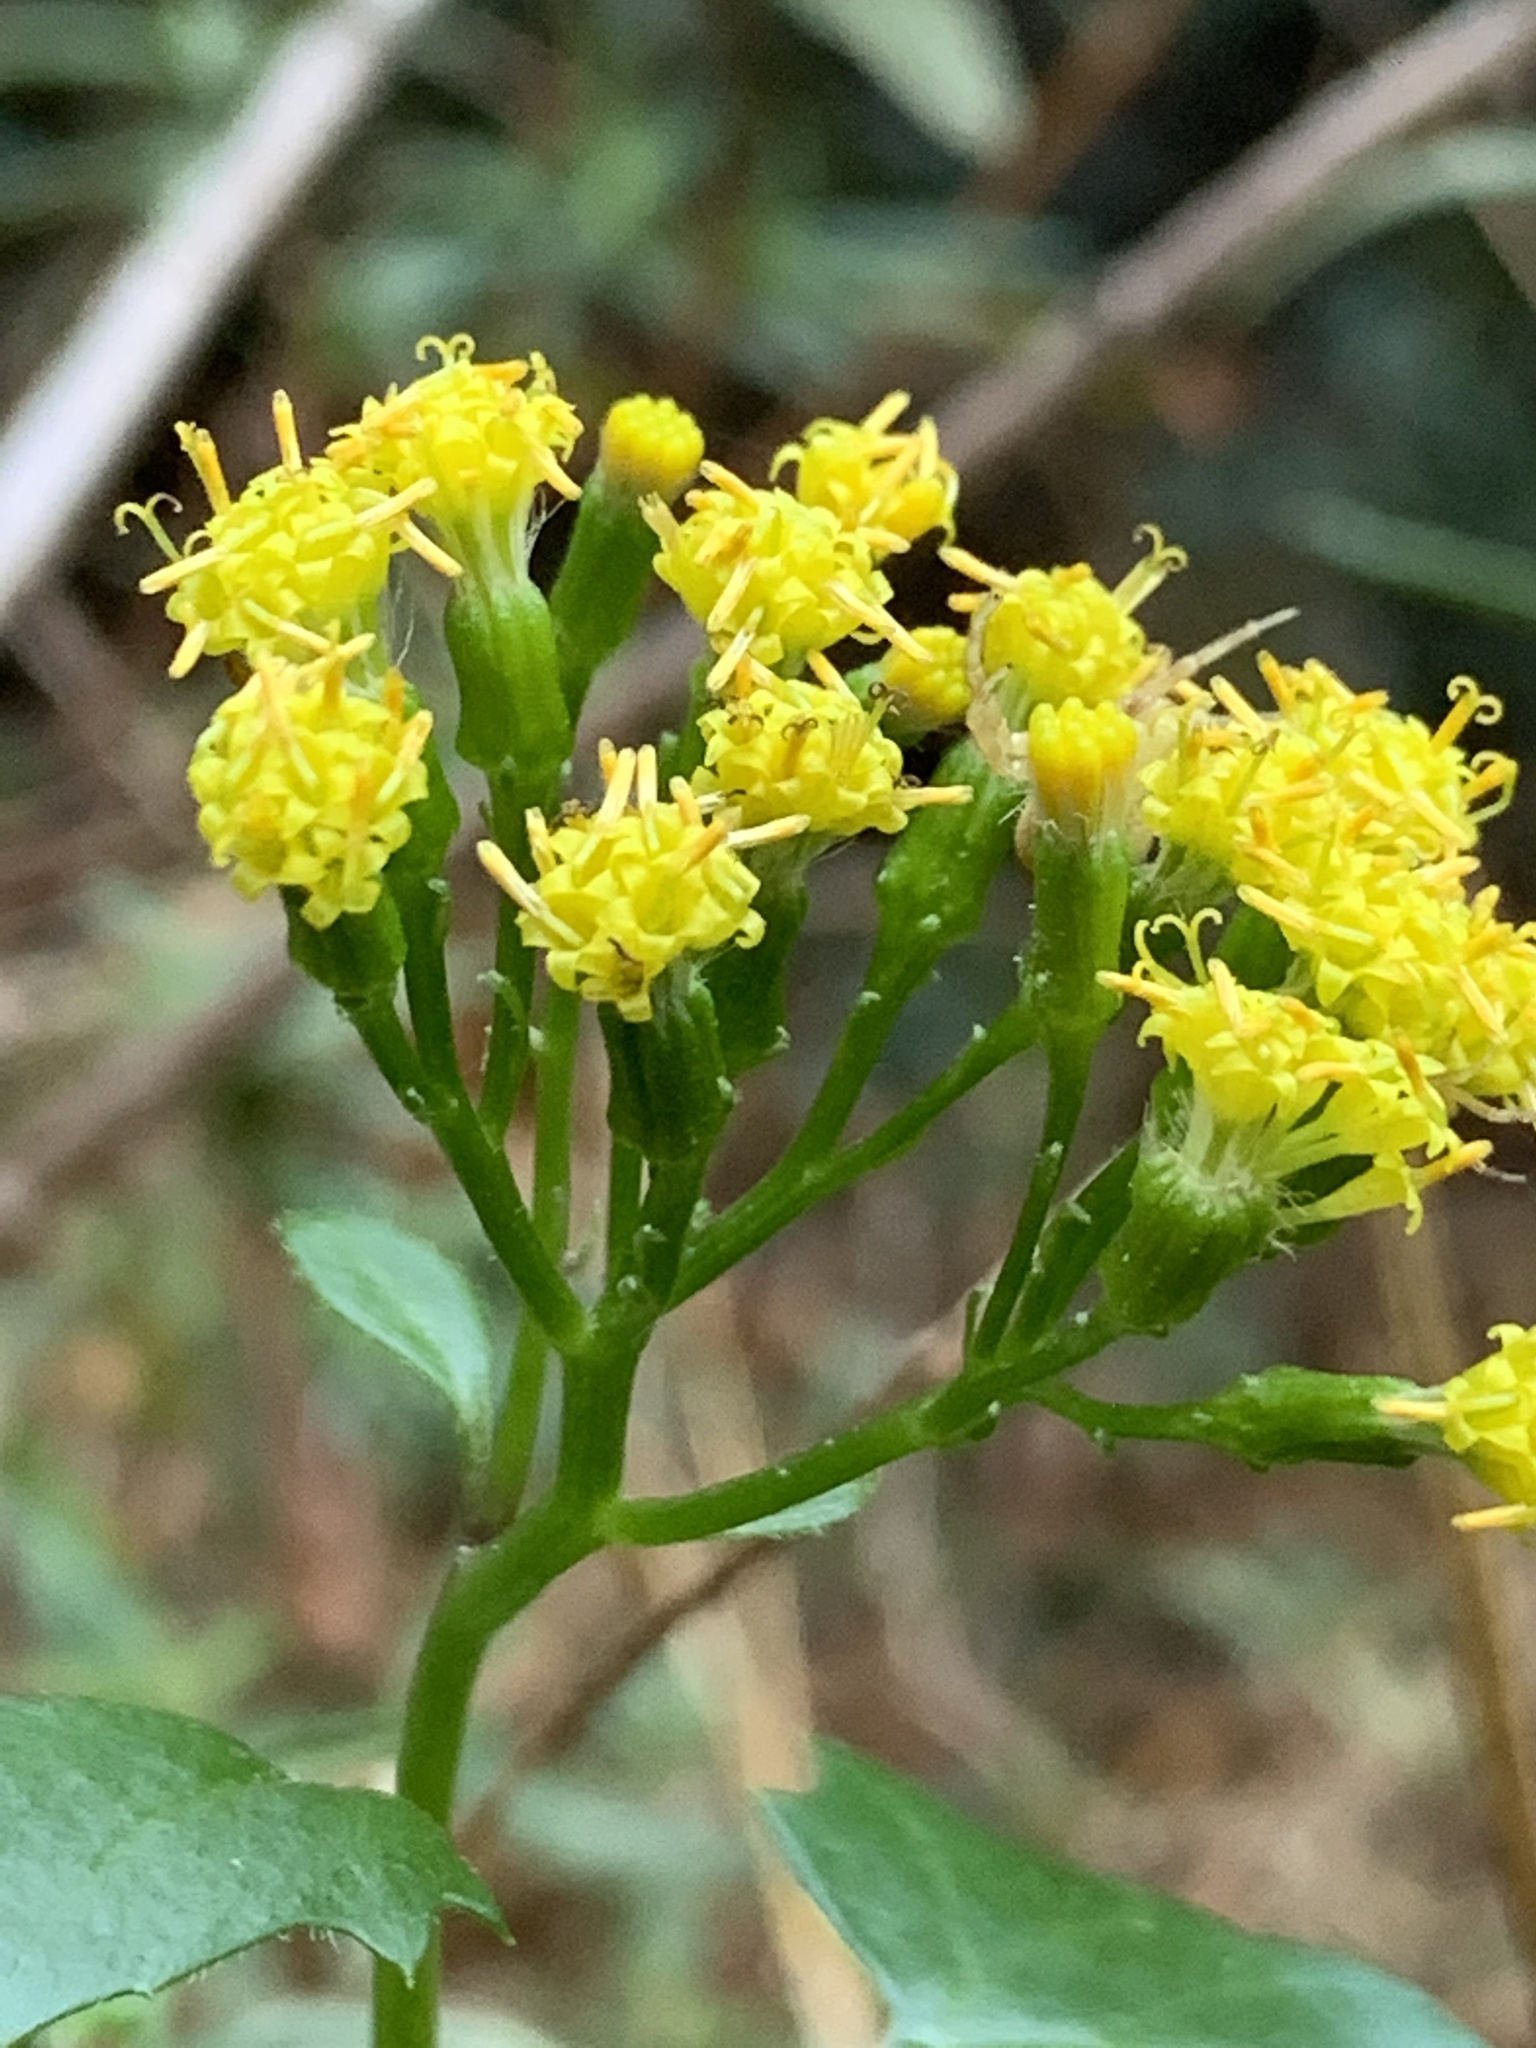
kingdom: Plantae
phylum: Tracheophyta
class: Magnoliopsida
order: Asterales
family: Asteraceae
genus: Delairea
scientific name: Delairea odorata
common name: Cape-ivy
